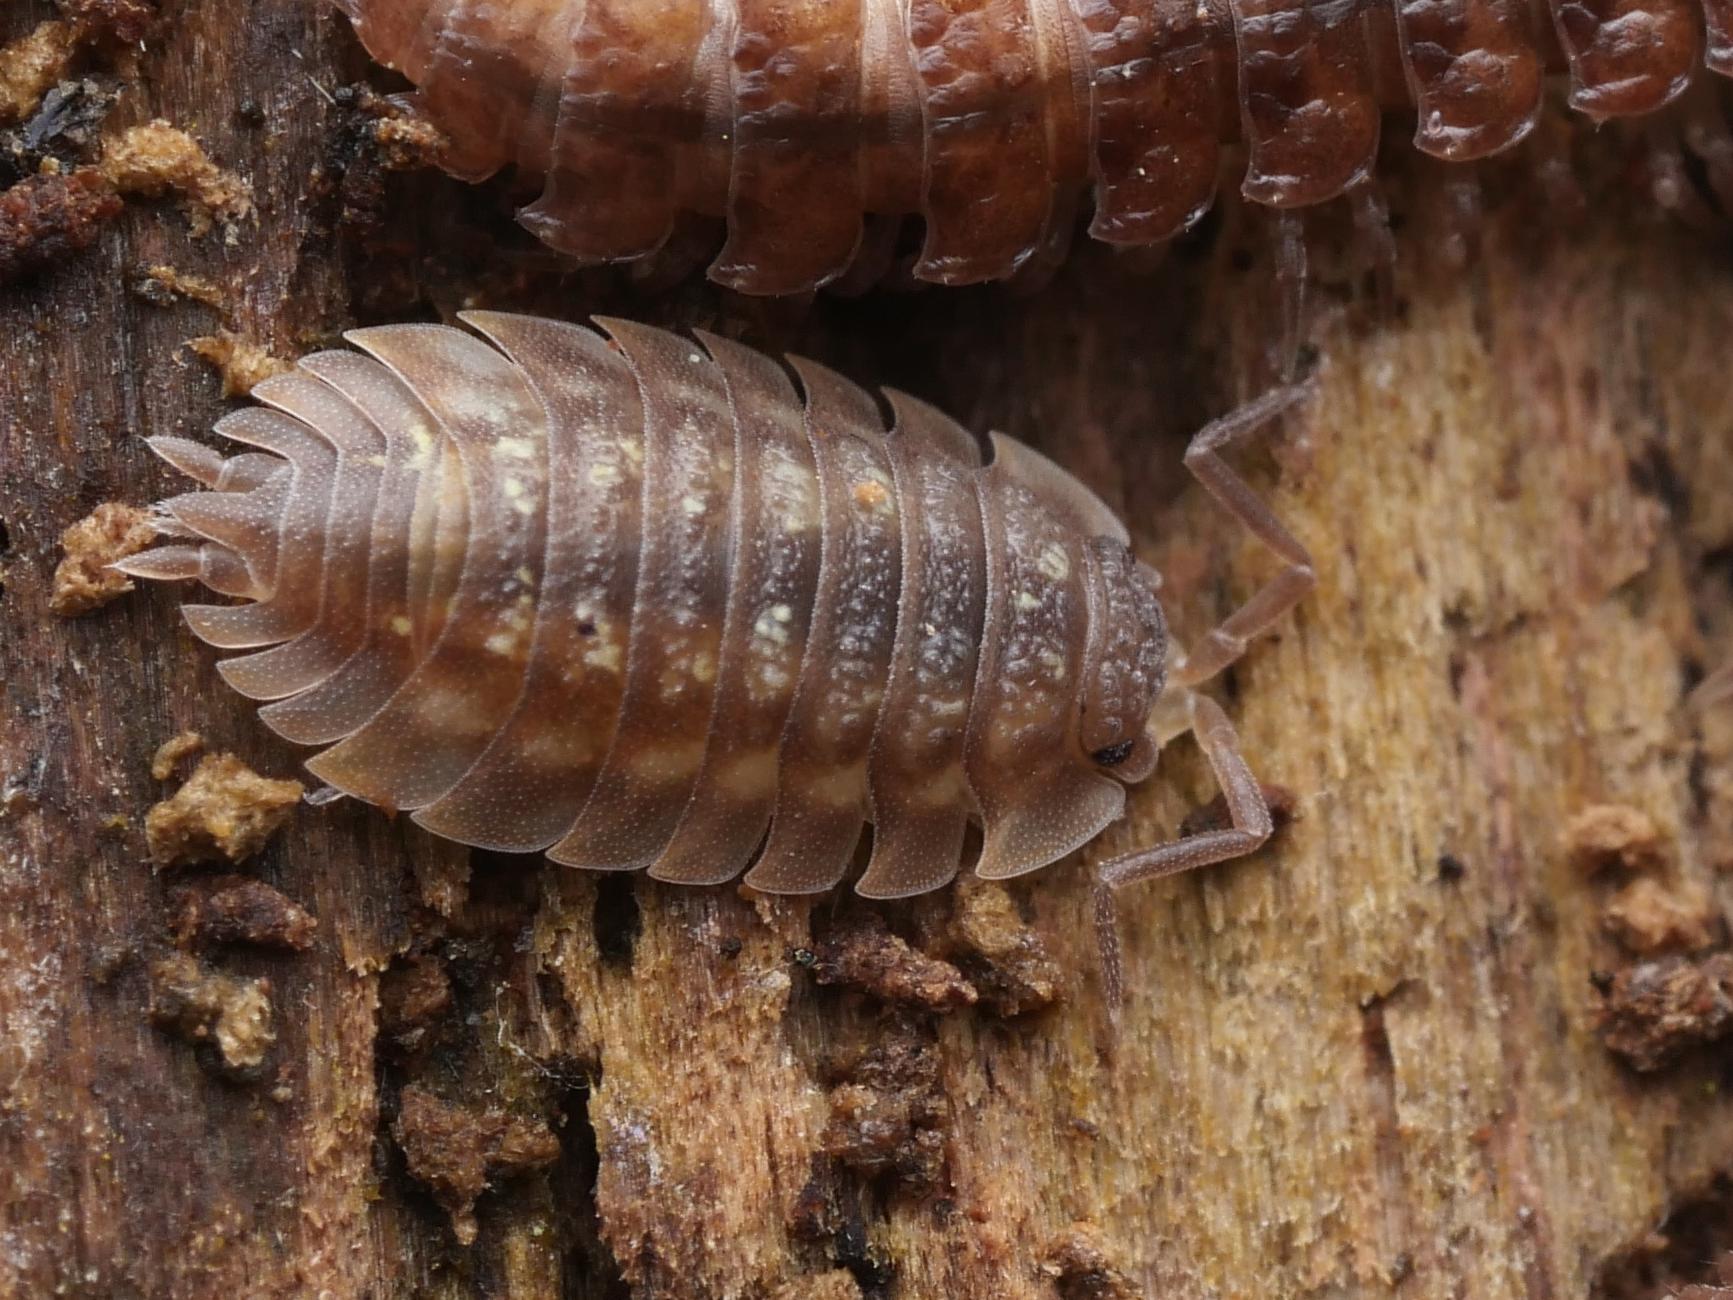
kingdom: Animalia
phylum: Arthropoda
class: Malacostraca
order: Isopoda
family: Oniscidae
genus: Oniscus
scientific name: Oniscus asellus
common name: Common shiny woodlouse
